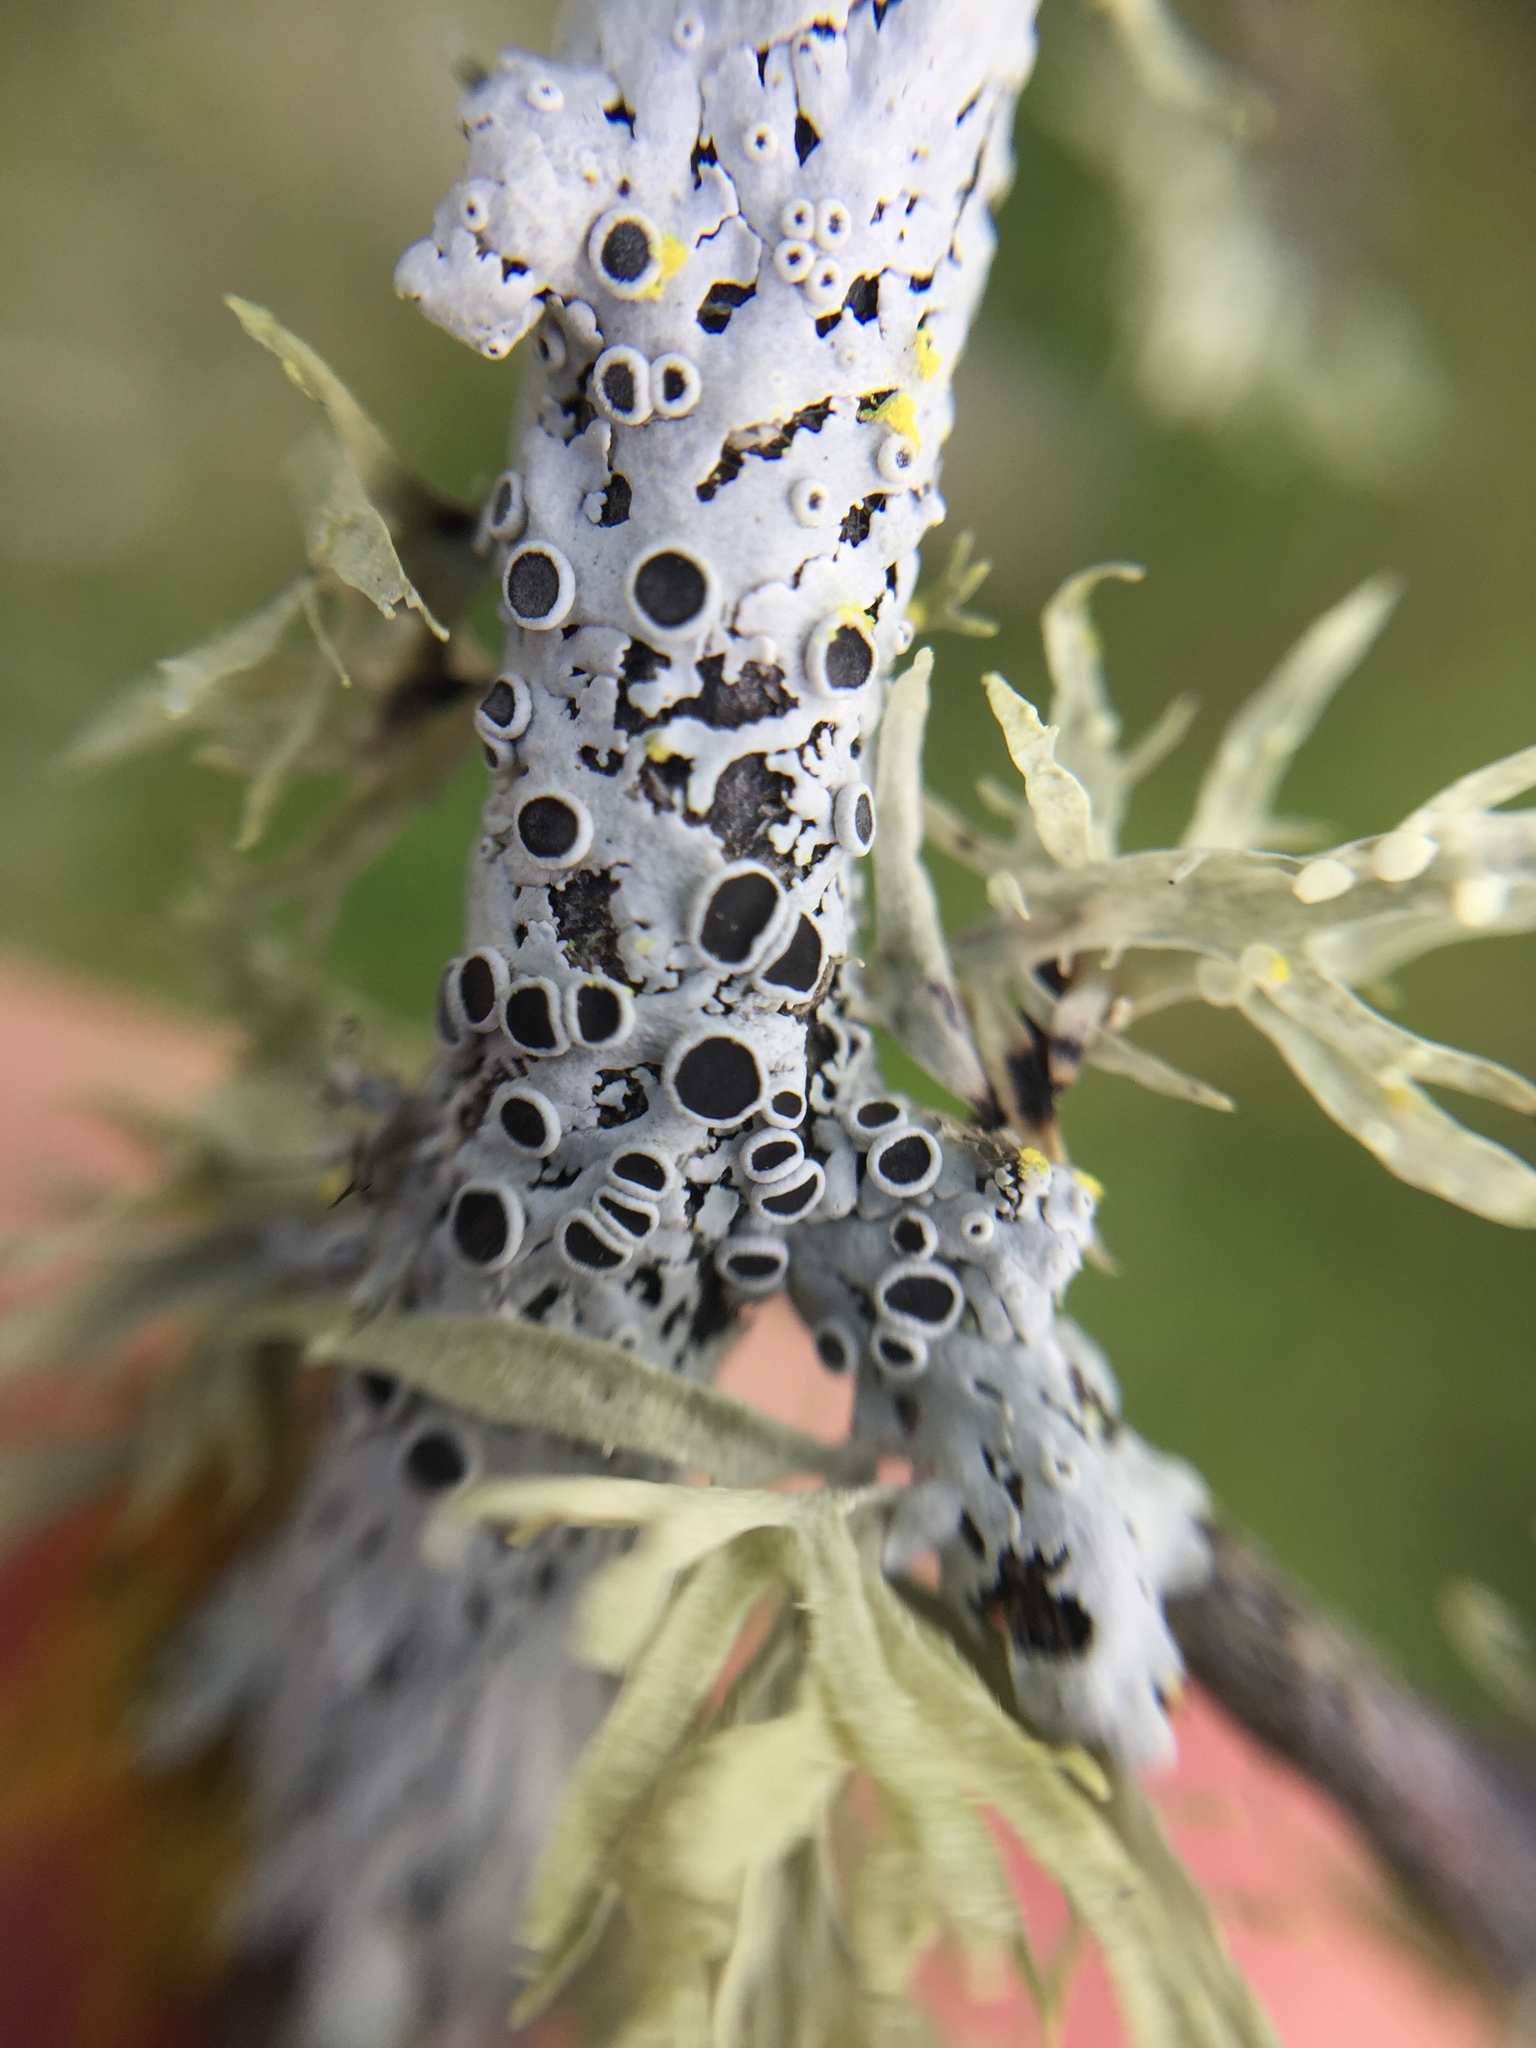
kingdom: Fungi
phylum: Ascomycota
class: Lecanoromycetes
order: Caliciales
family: Physciaceae
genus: Kashiwadia
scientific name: Kashiwadia jackii
